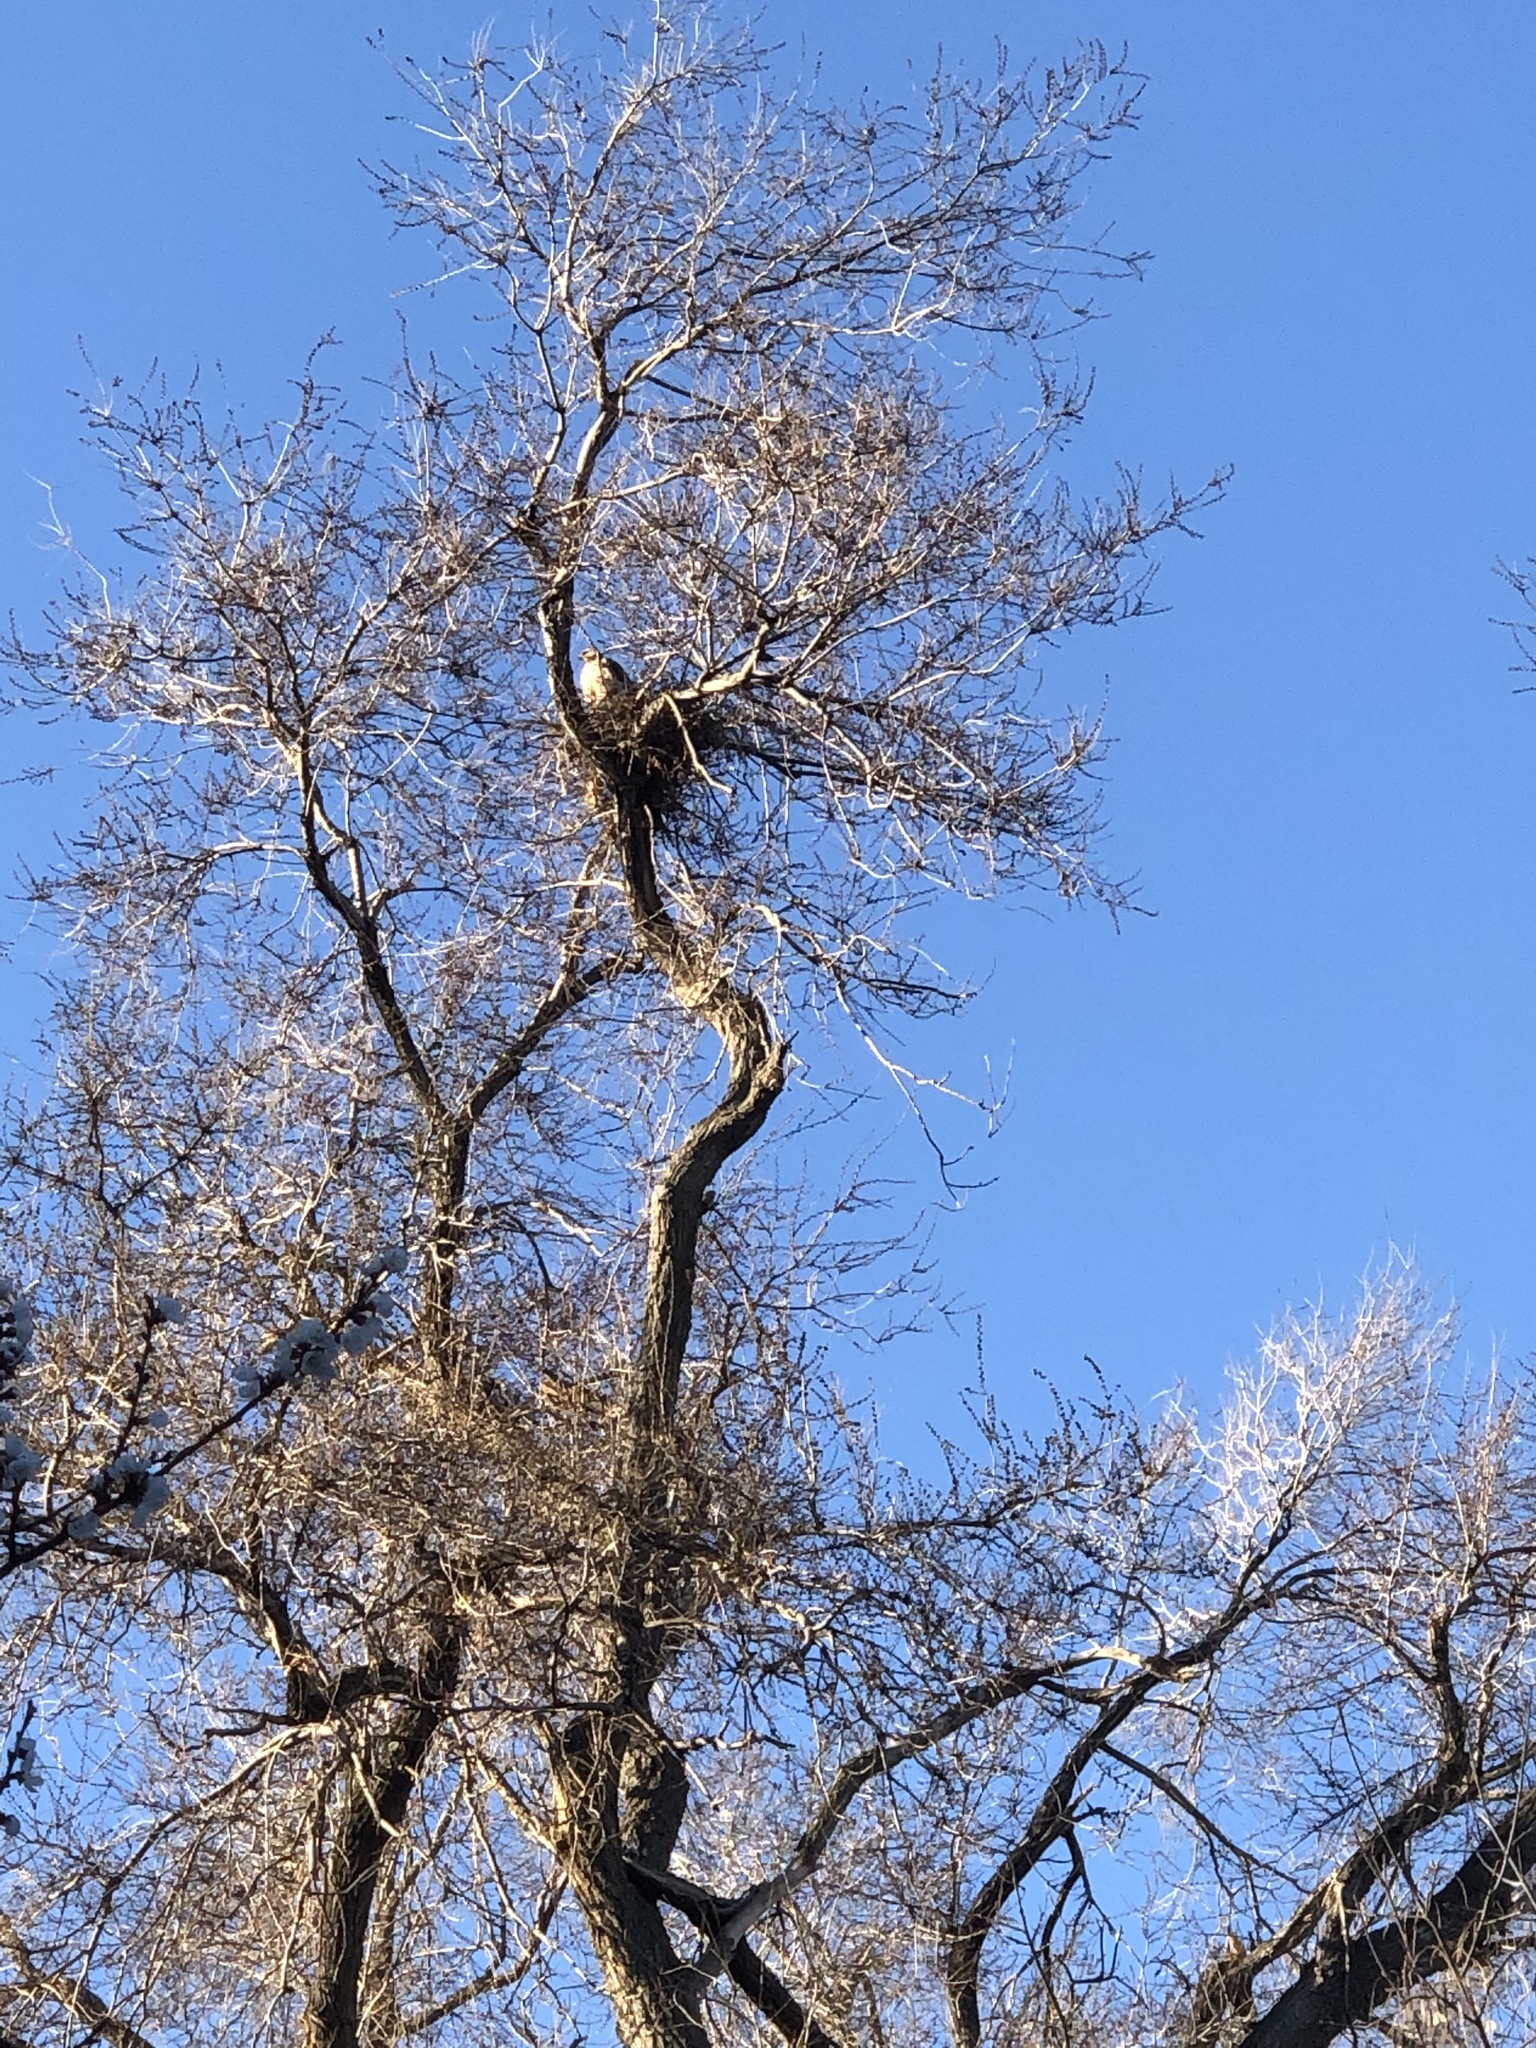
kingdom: Animalia
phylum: Chordata
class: Aves
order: Accipitriformes
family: Accipitridae
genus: Buteo
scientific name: Buteo jamaicensis
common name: Red-tailed hawk
